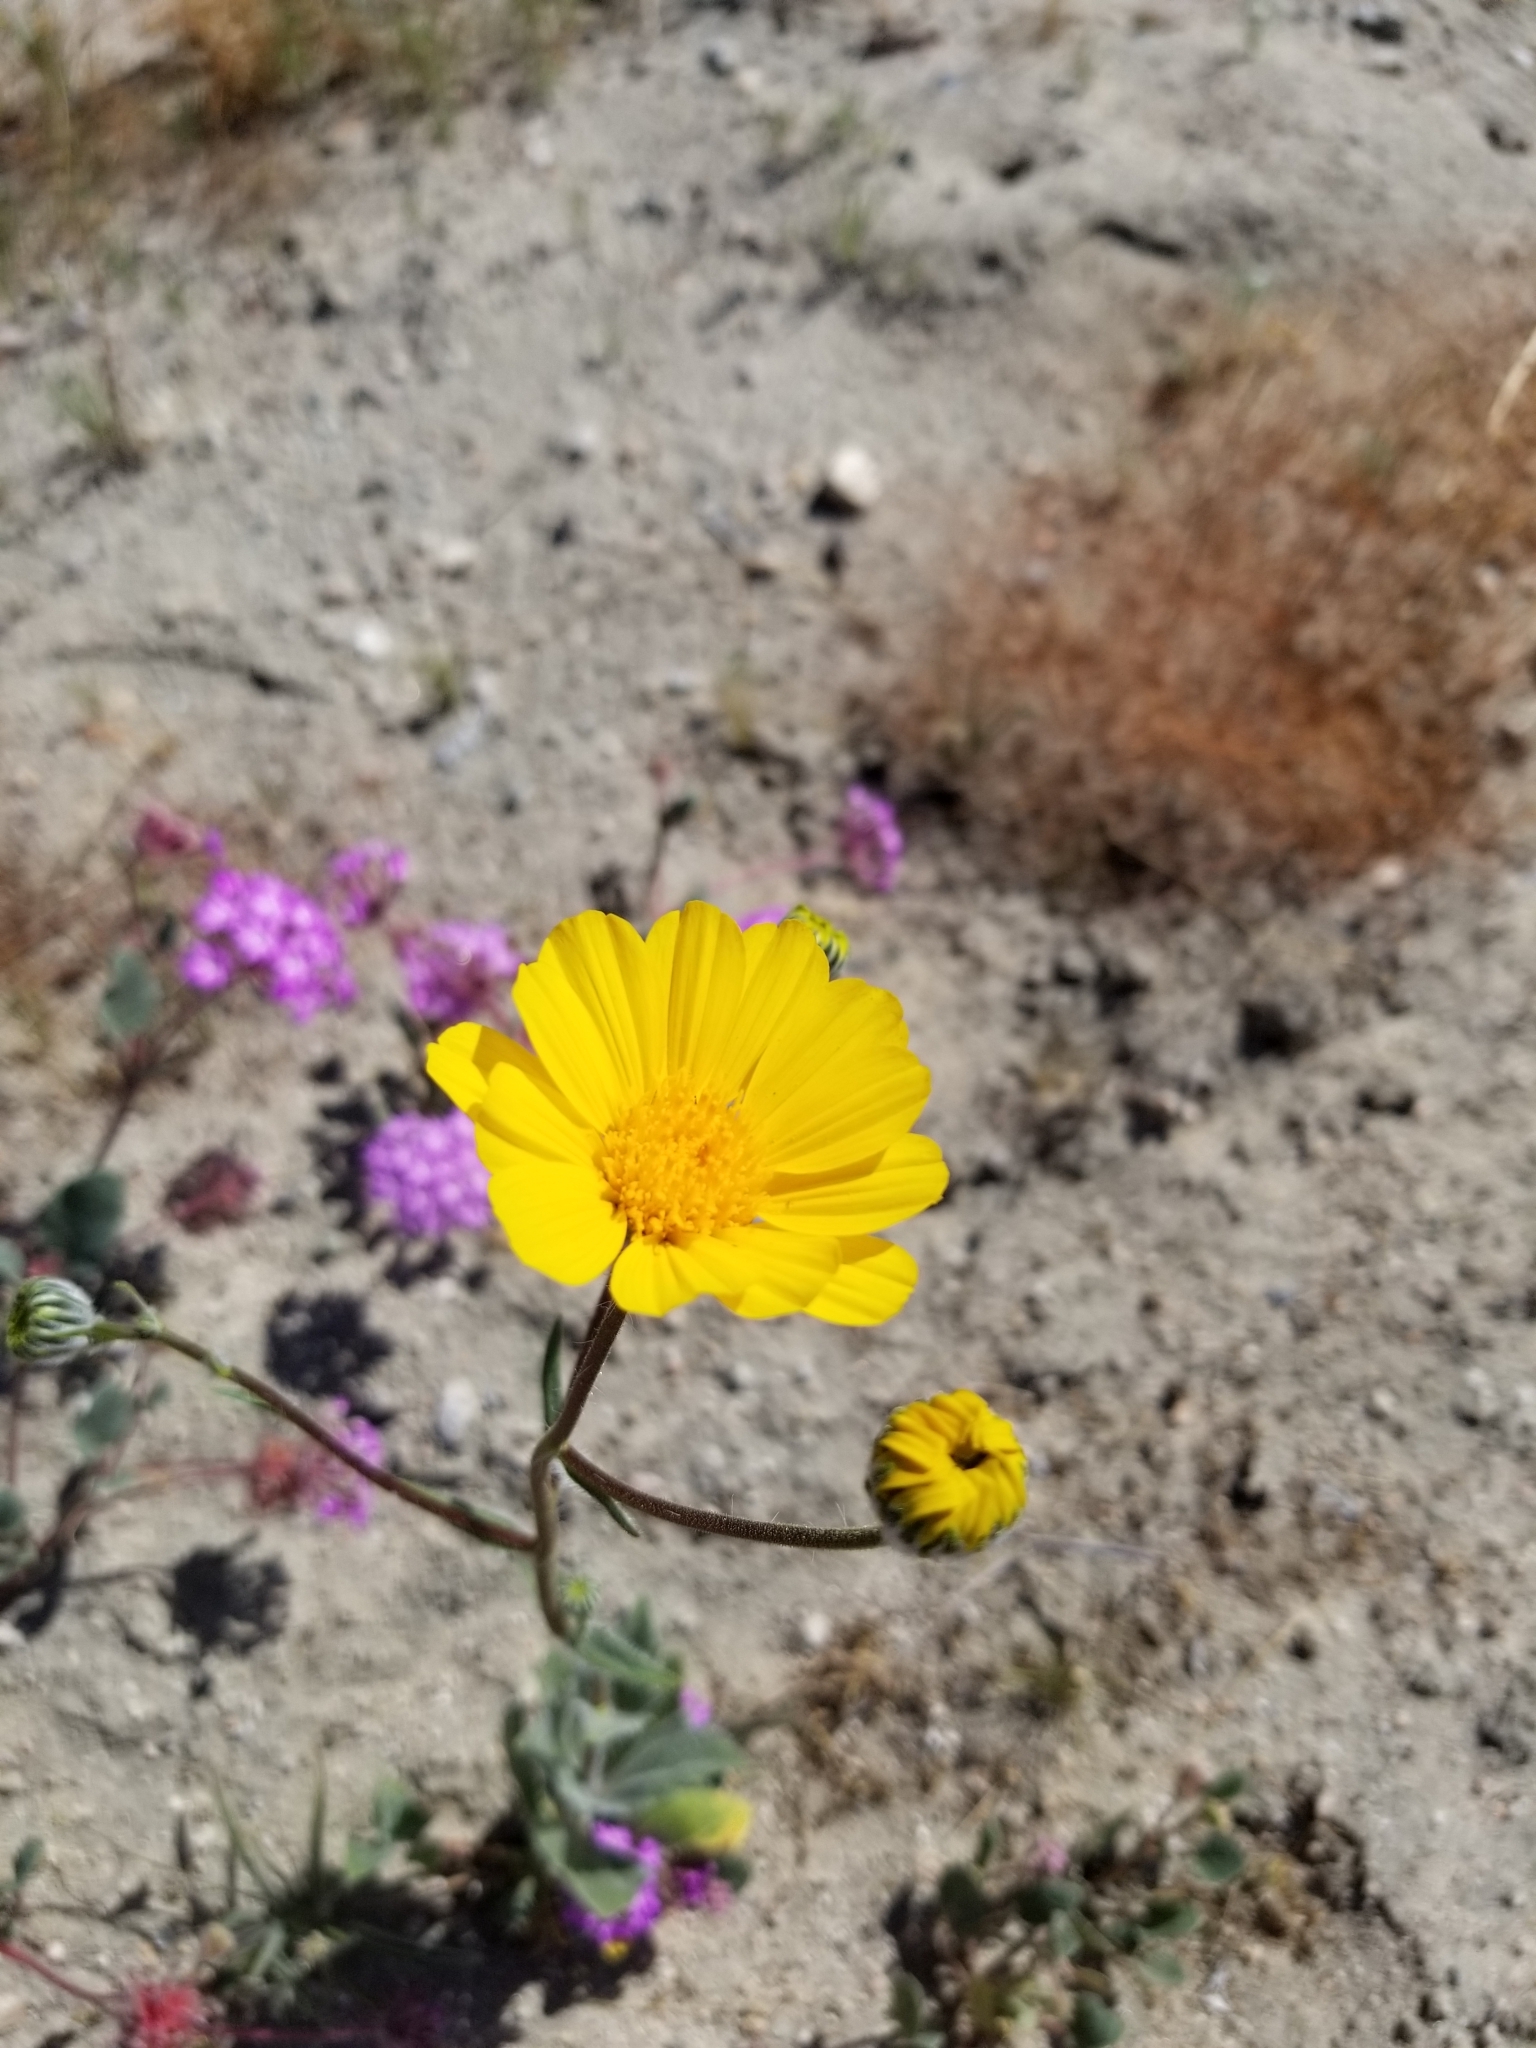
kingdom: Plantae
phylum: Tracheophyta
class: Magnoliopsida
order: Asterales
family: Asteraceae
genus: Geraea
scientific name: Geraea canescens
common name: Desert-gold
